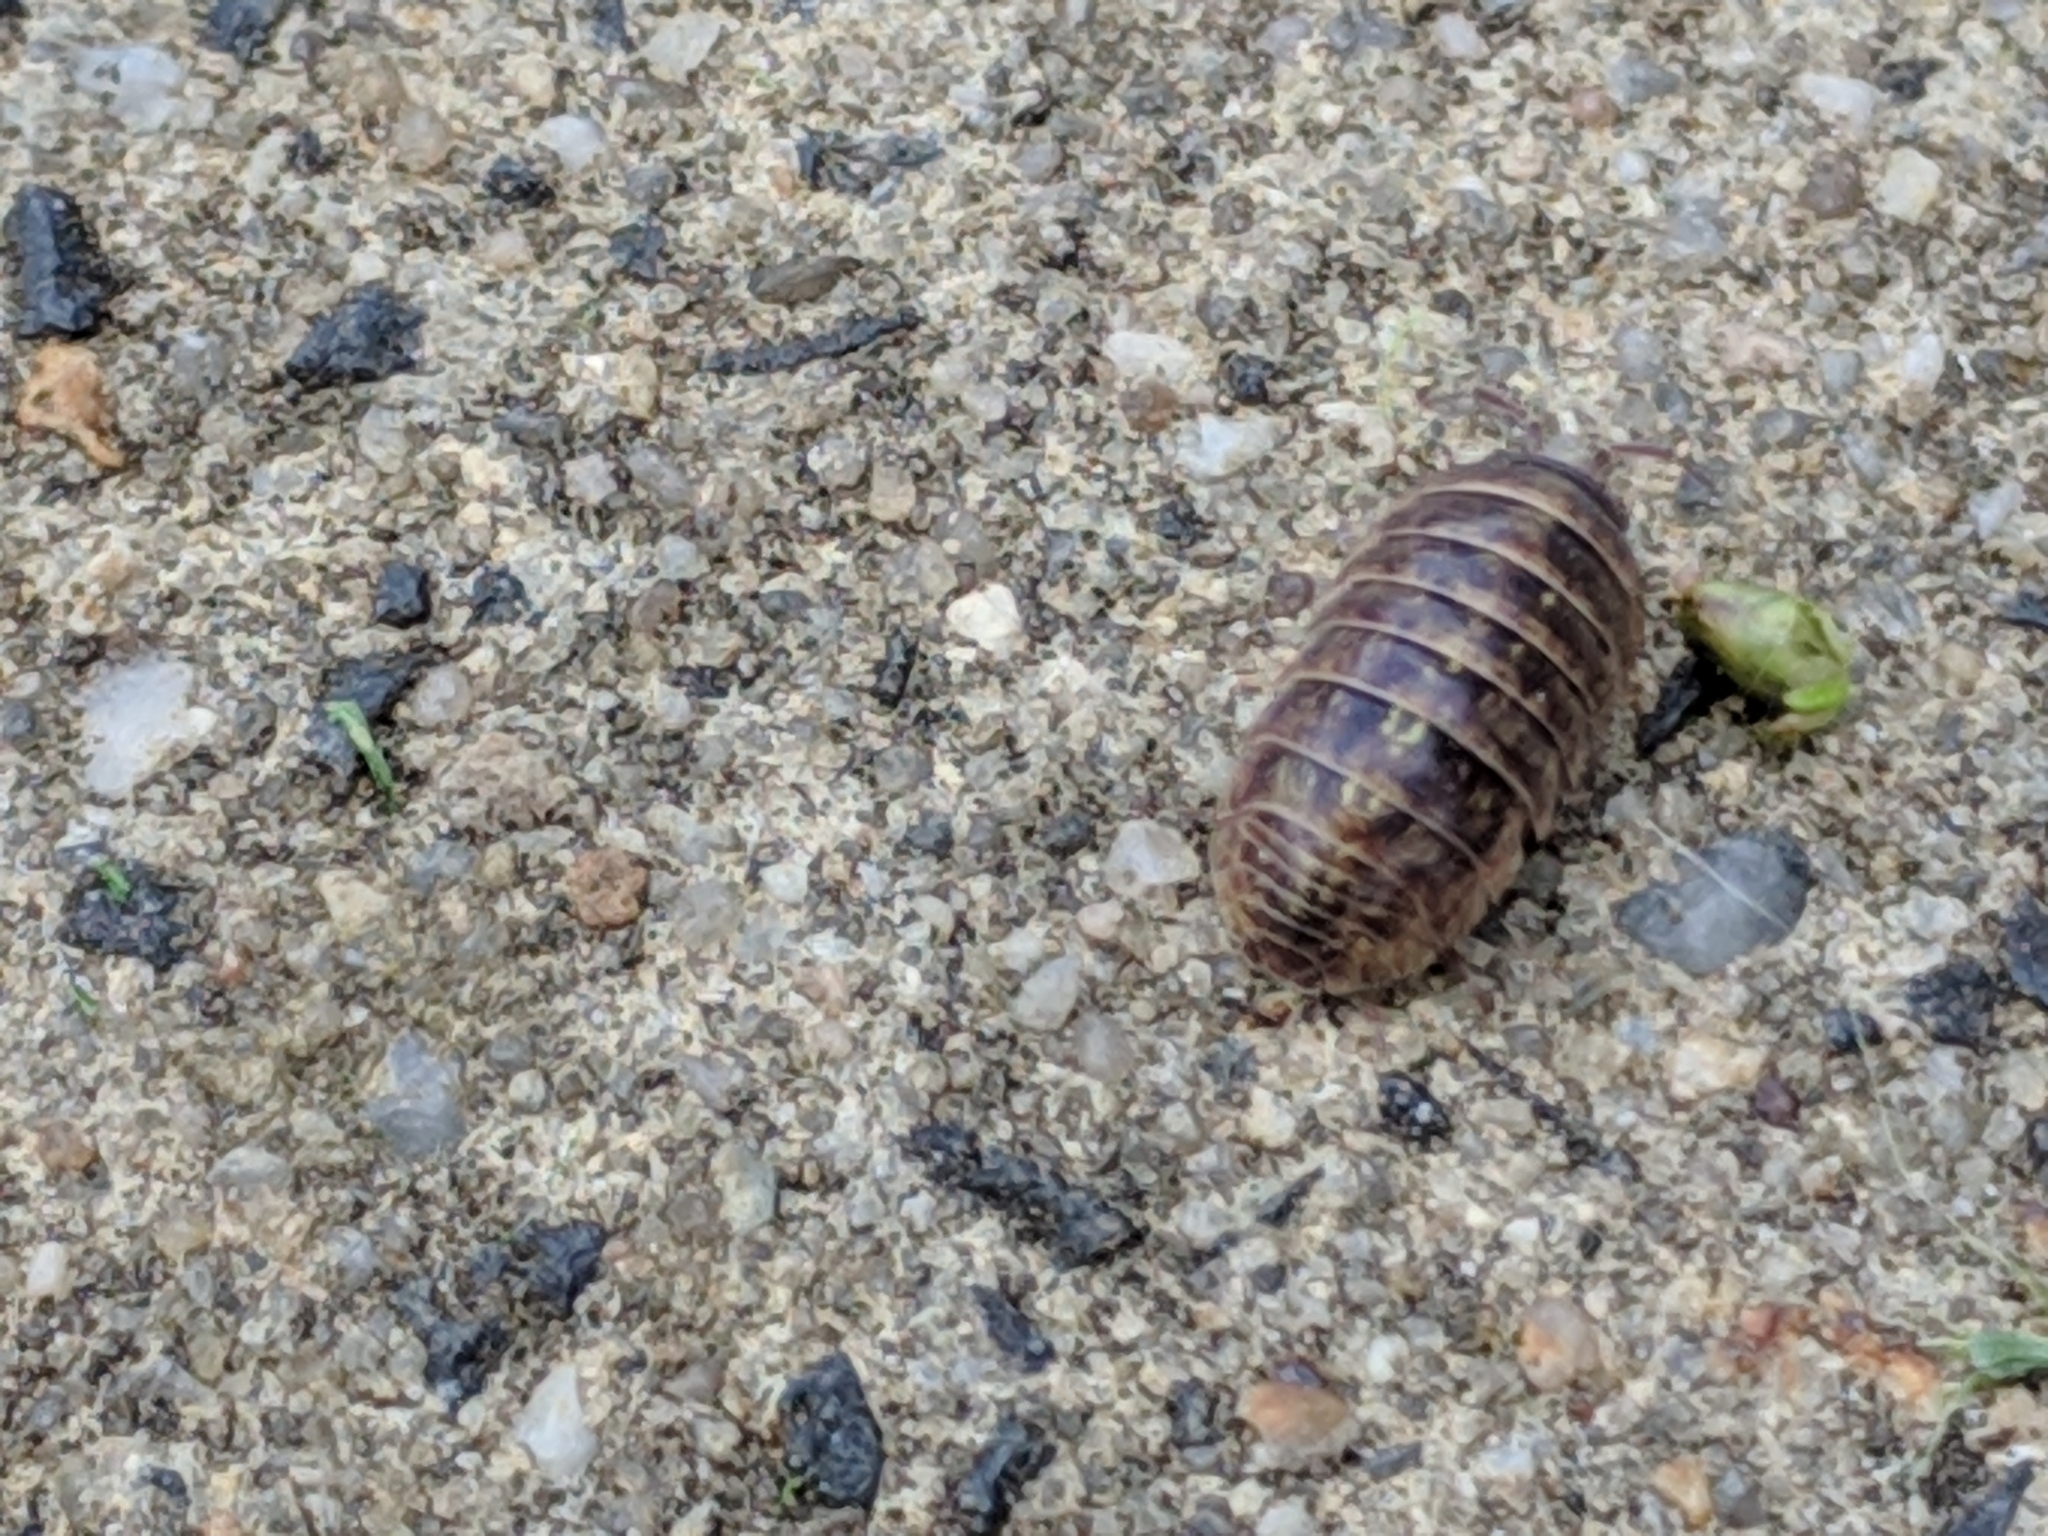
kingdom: Animalia
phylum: Arthropoda
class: Malacostraca
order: Isopoda
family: Armadillidiidae
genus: Armadillidium
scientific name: Armadillidium vulgare
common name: Common pill woodlouse
